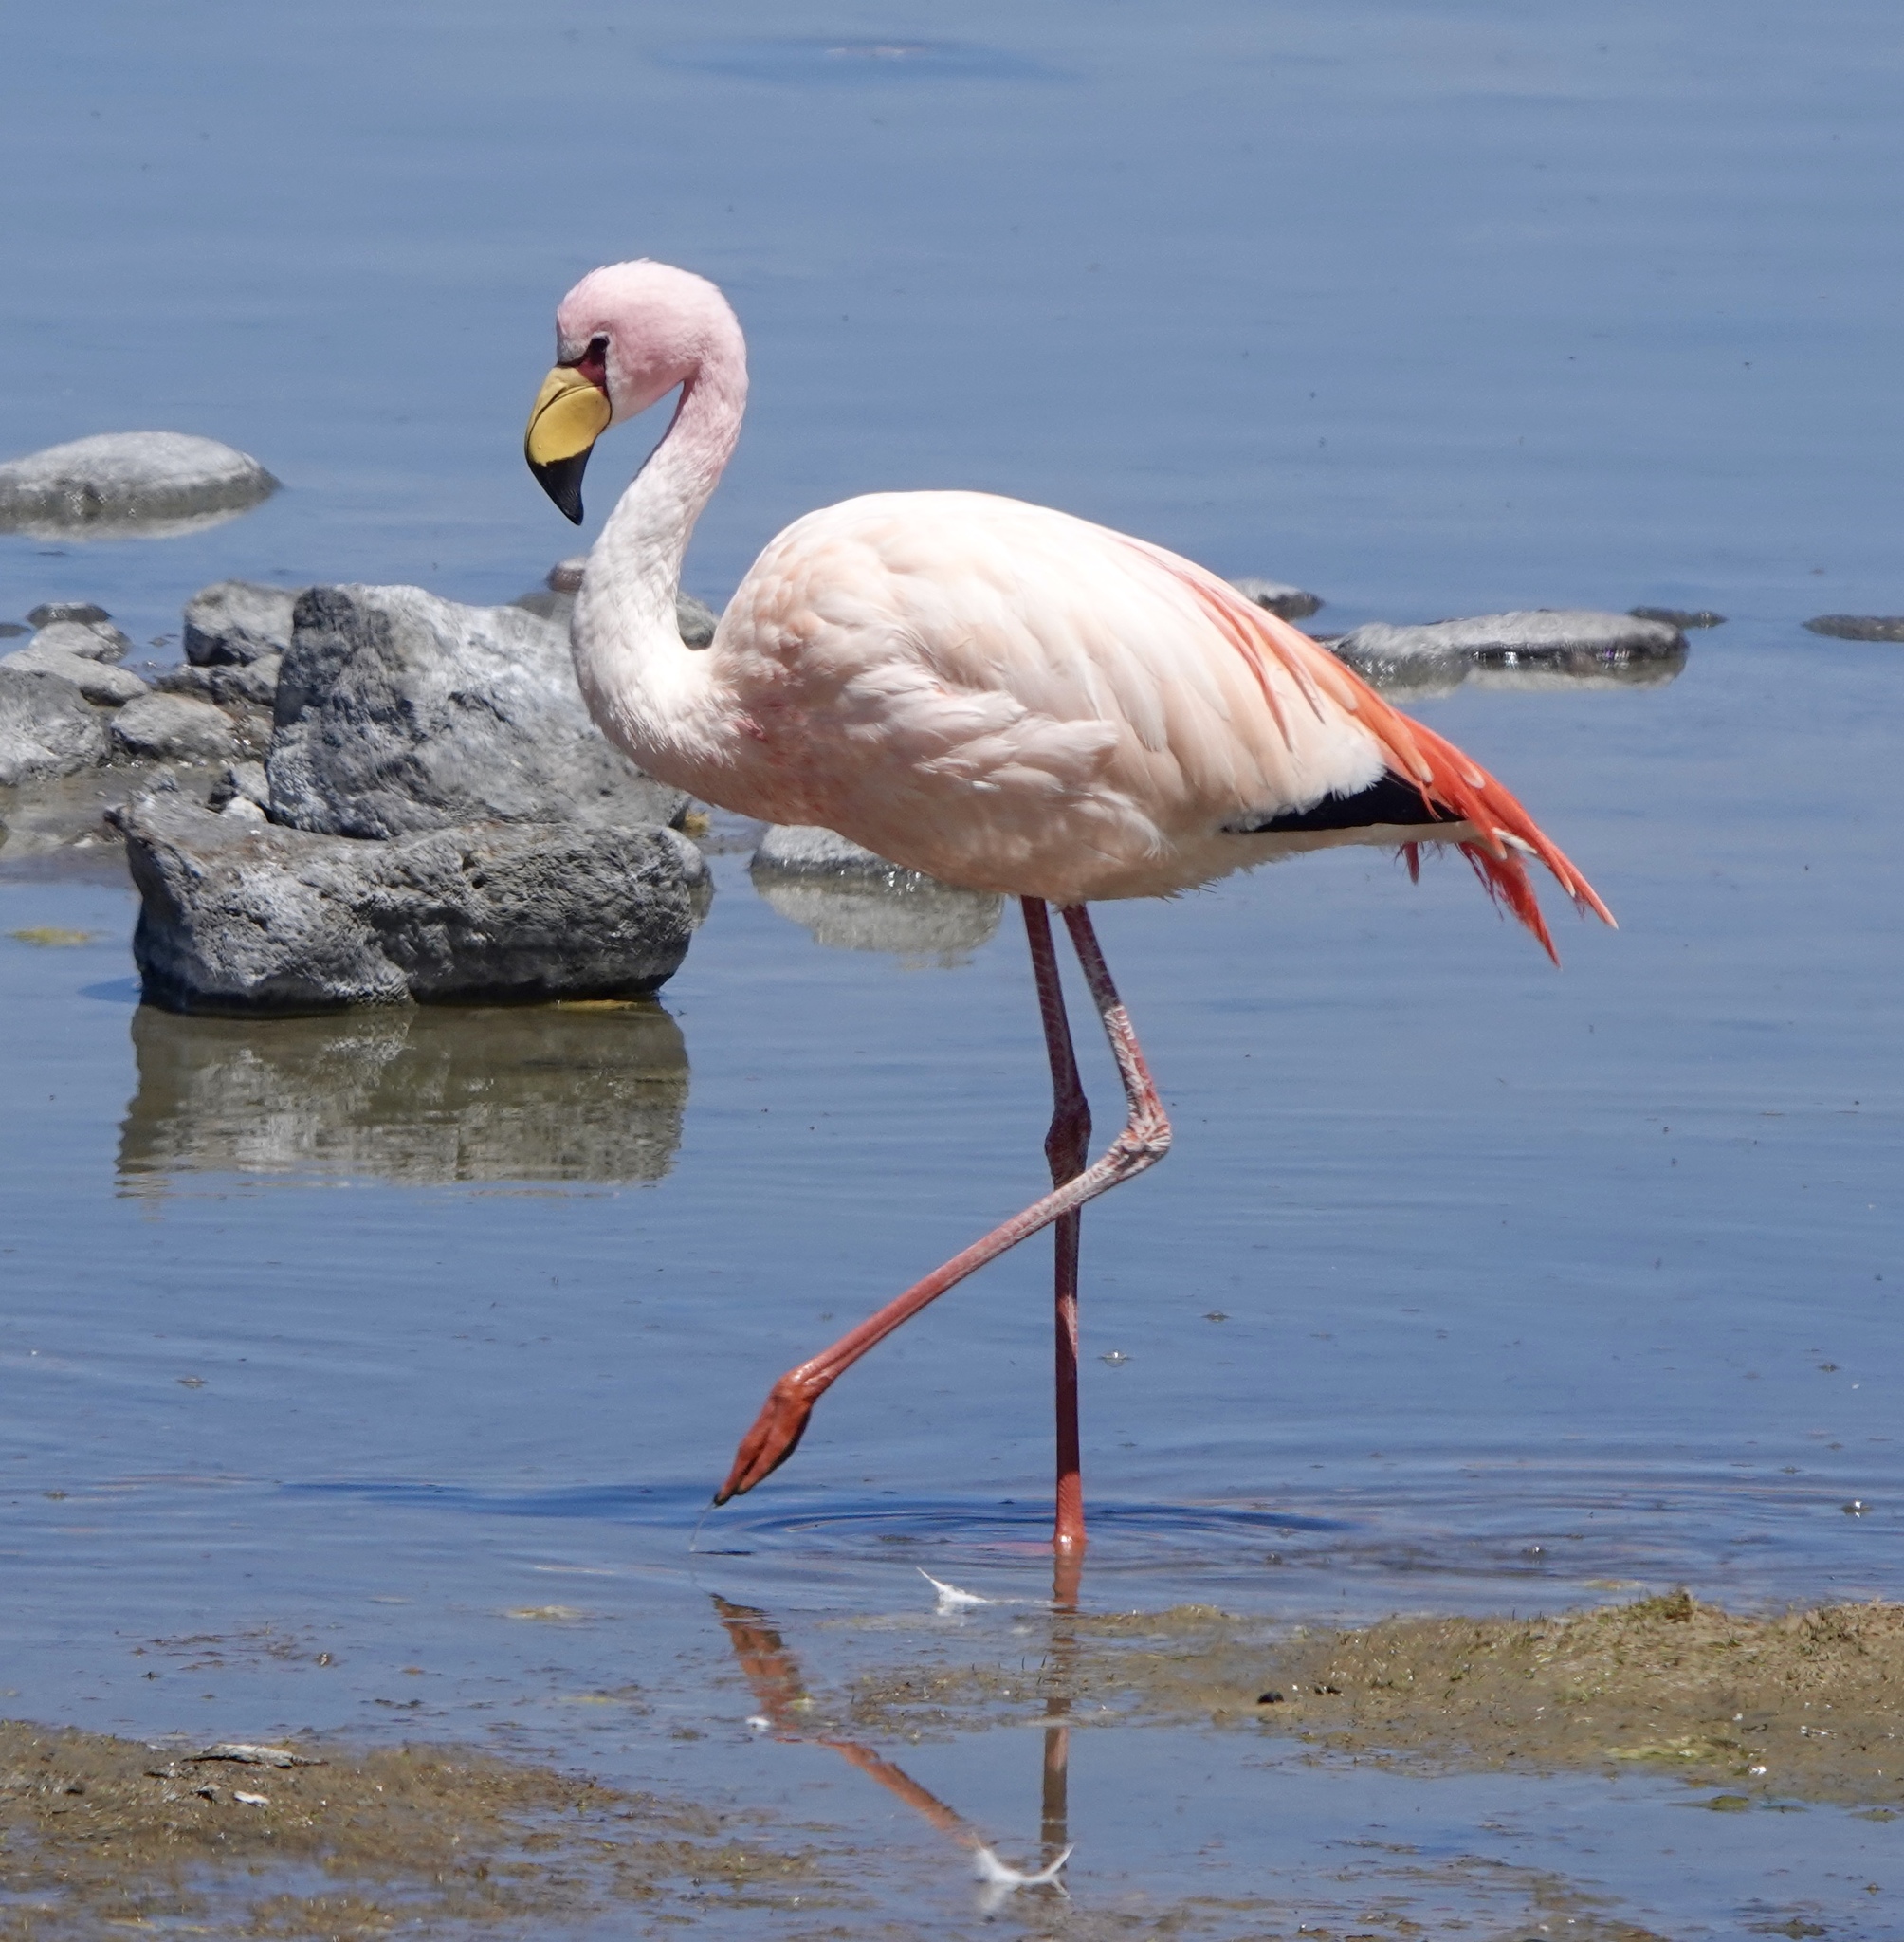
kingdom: Animalia
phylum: Chordata
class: Aves
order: Phoenicopteriformes
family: Phoenicopteridae
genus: Phoenicoparrus
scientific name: Phoenicoparrus jamesi
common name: James's flamingo
